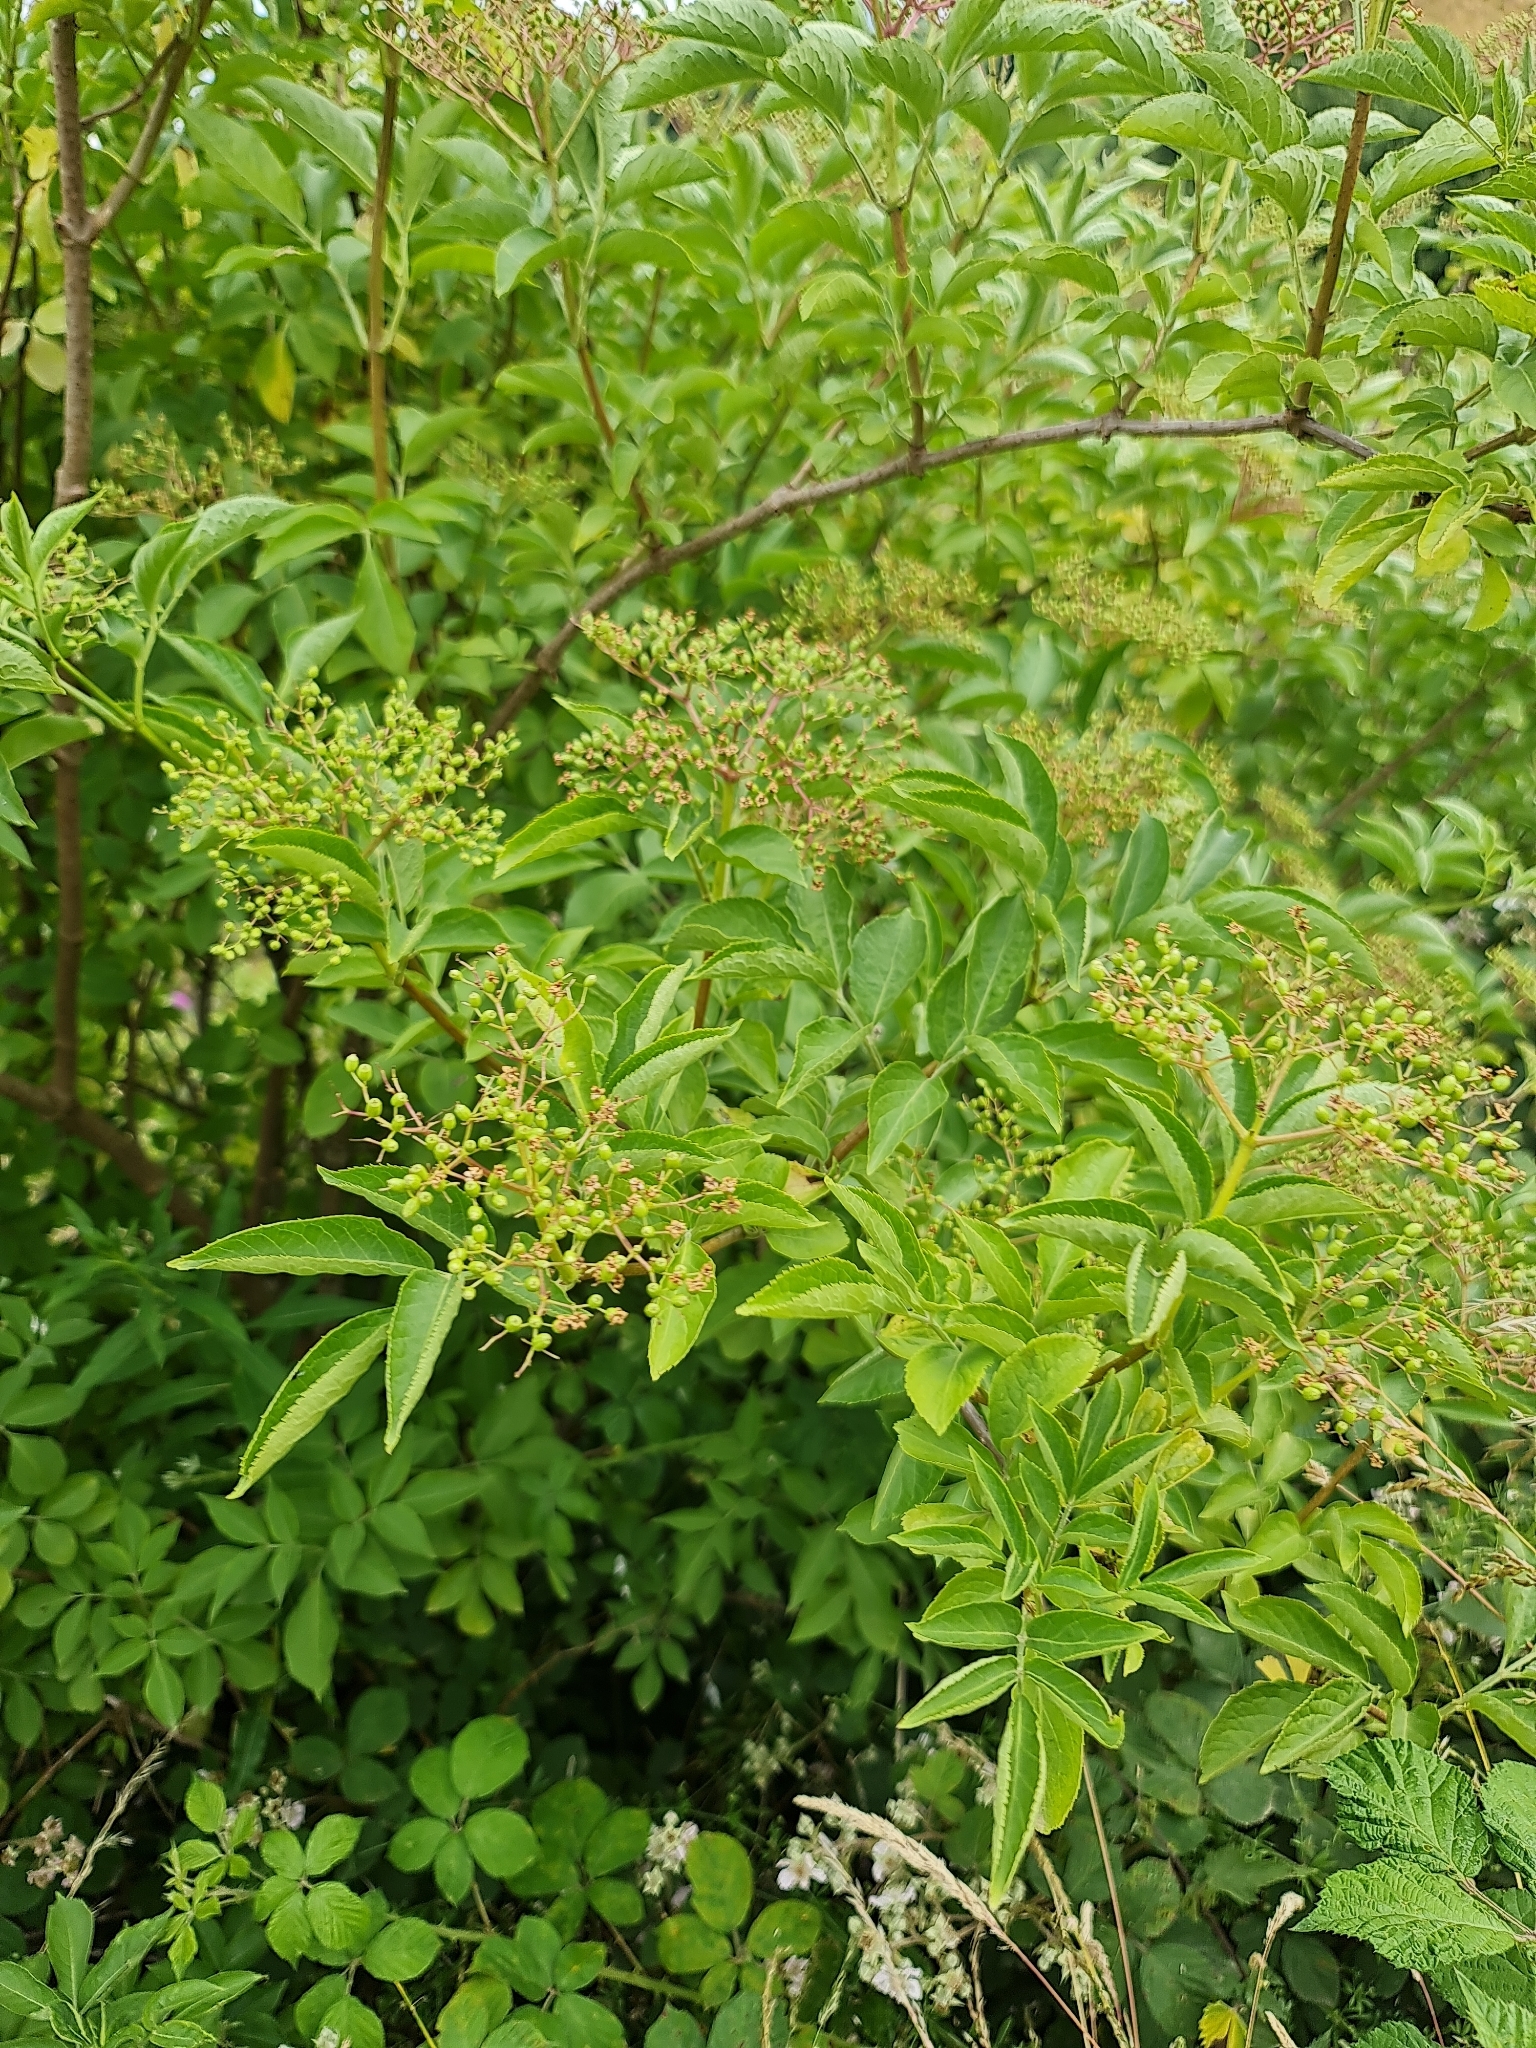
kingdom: Plantae
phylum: Tracheophyta
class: Magnoliopsida
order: Dipsacales
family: Viburnaceae
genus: Sambucus
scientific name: Sambucus nigra
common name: Elder
